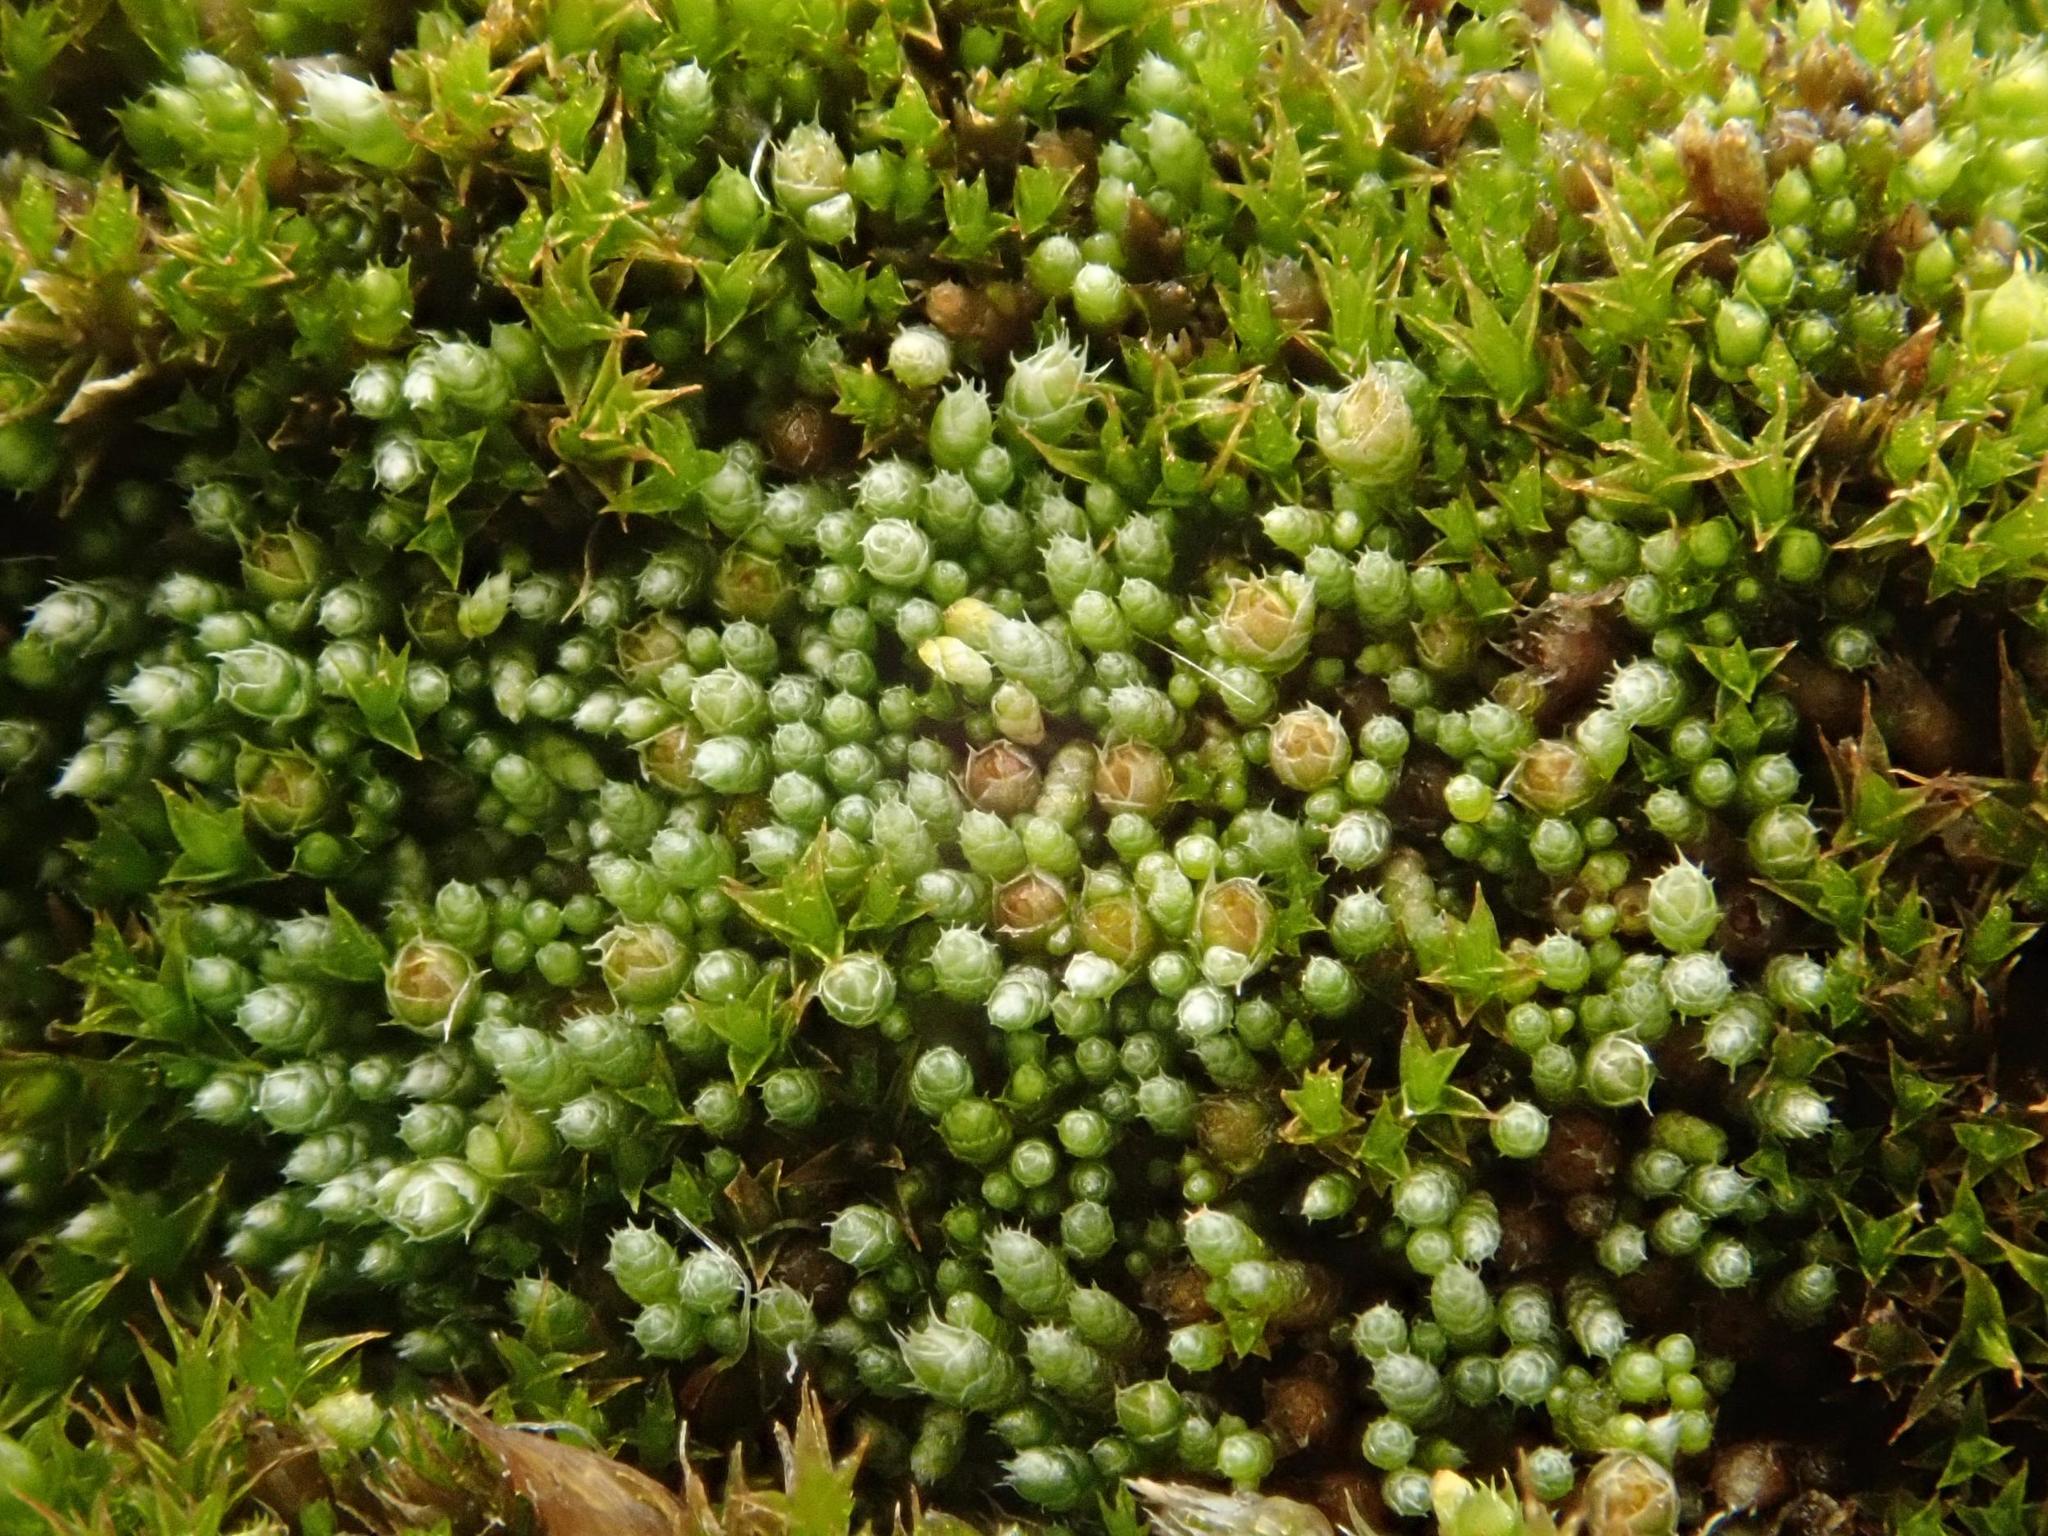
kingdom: Plantae
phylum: Bryophyta
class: Bryopsida
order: Bryales
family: Bryaceae
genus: Bryum
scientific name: Bryum argenteum
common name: Silver-moss
